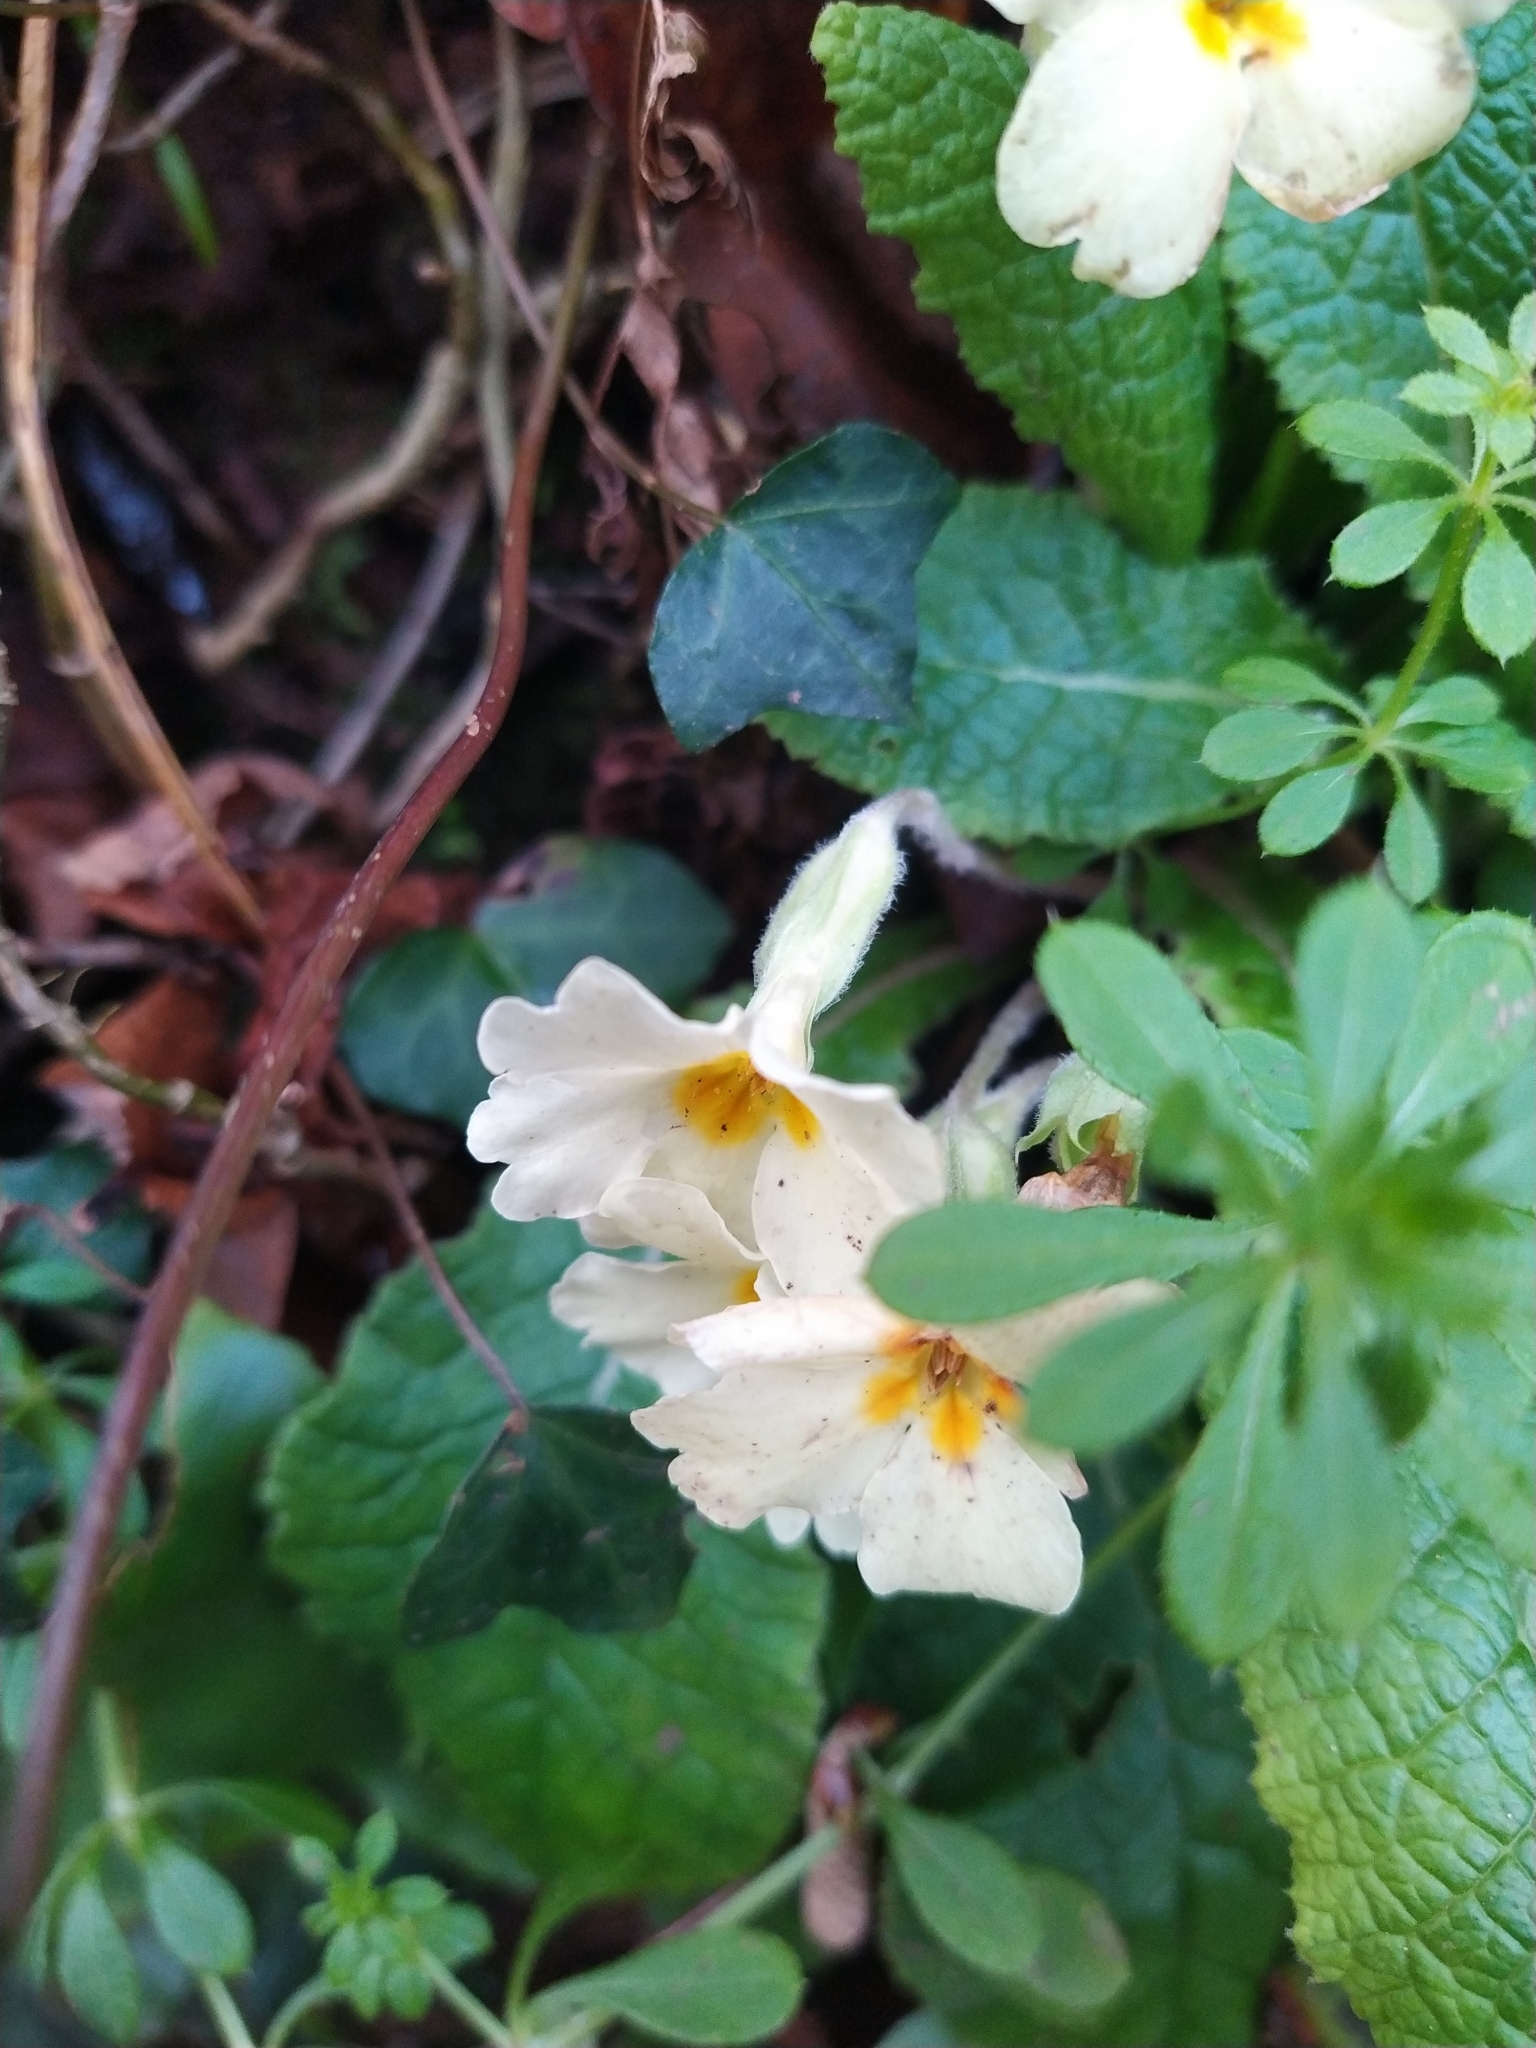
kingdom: Plantae
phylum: Tracheophyta
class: Magnoliopsida
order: Ericales
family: Primulaceae
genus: Primula
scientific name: Primula vulgaris
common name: Primrose
